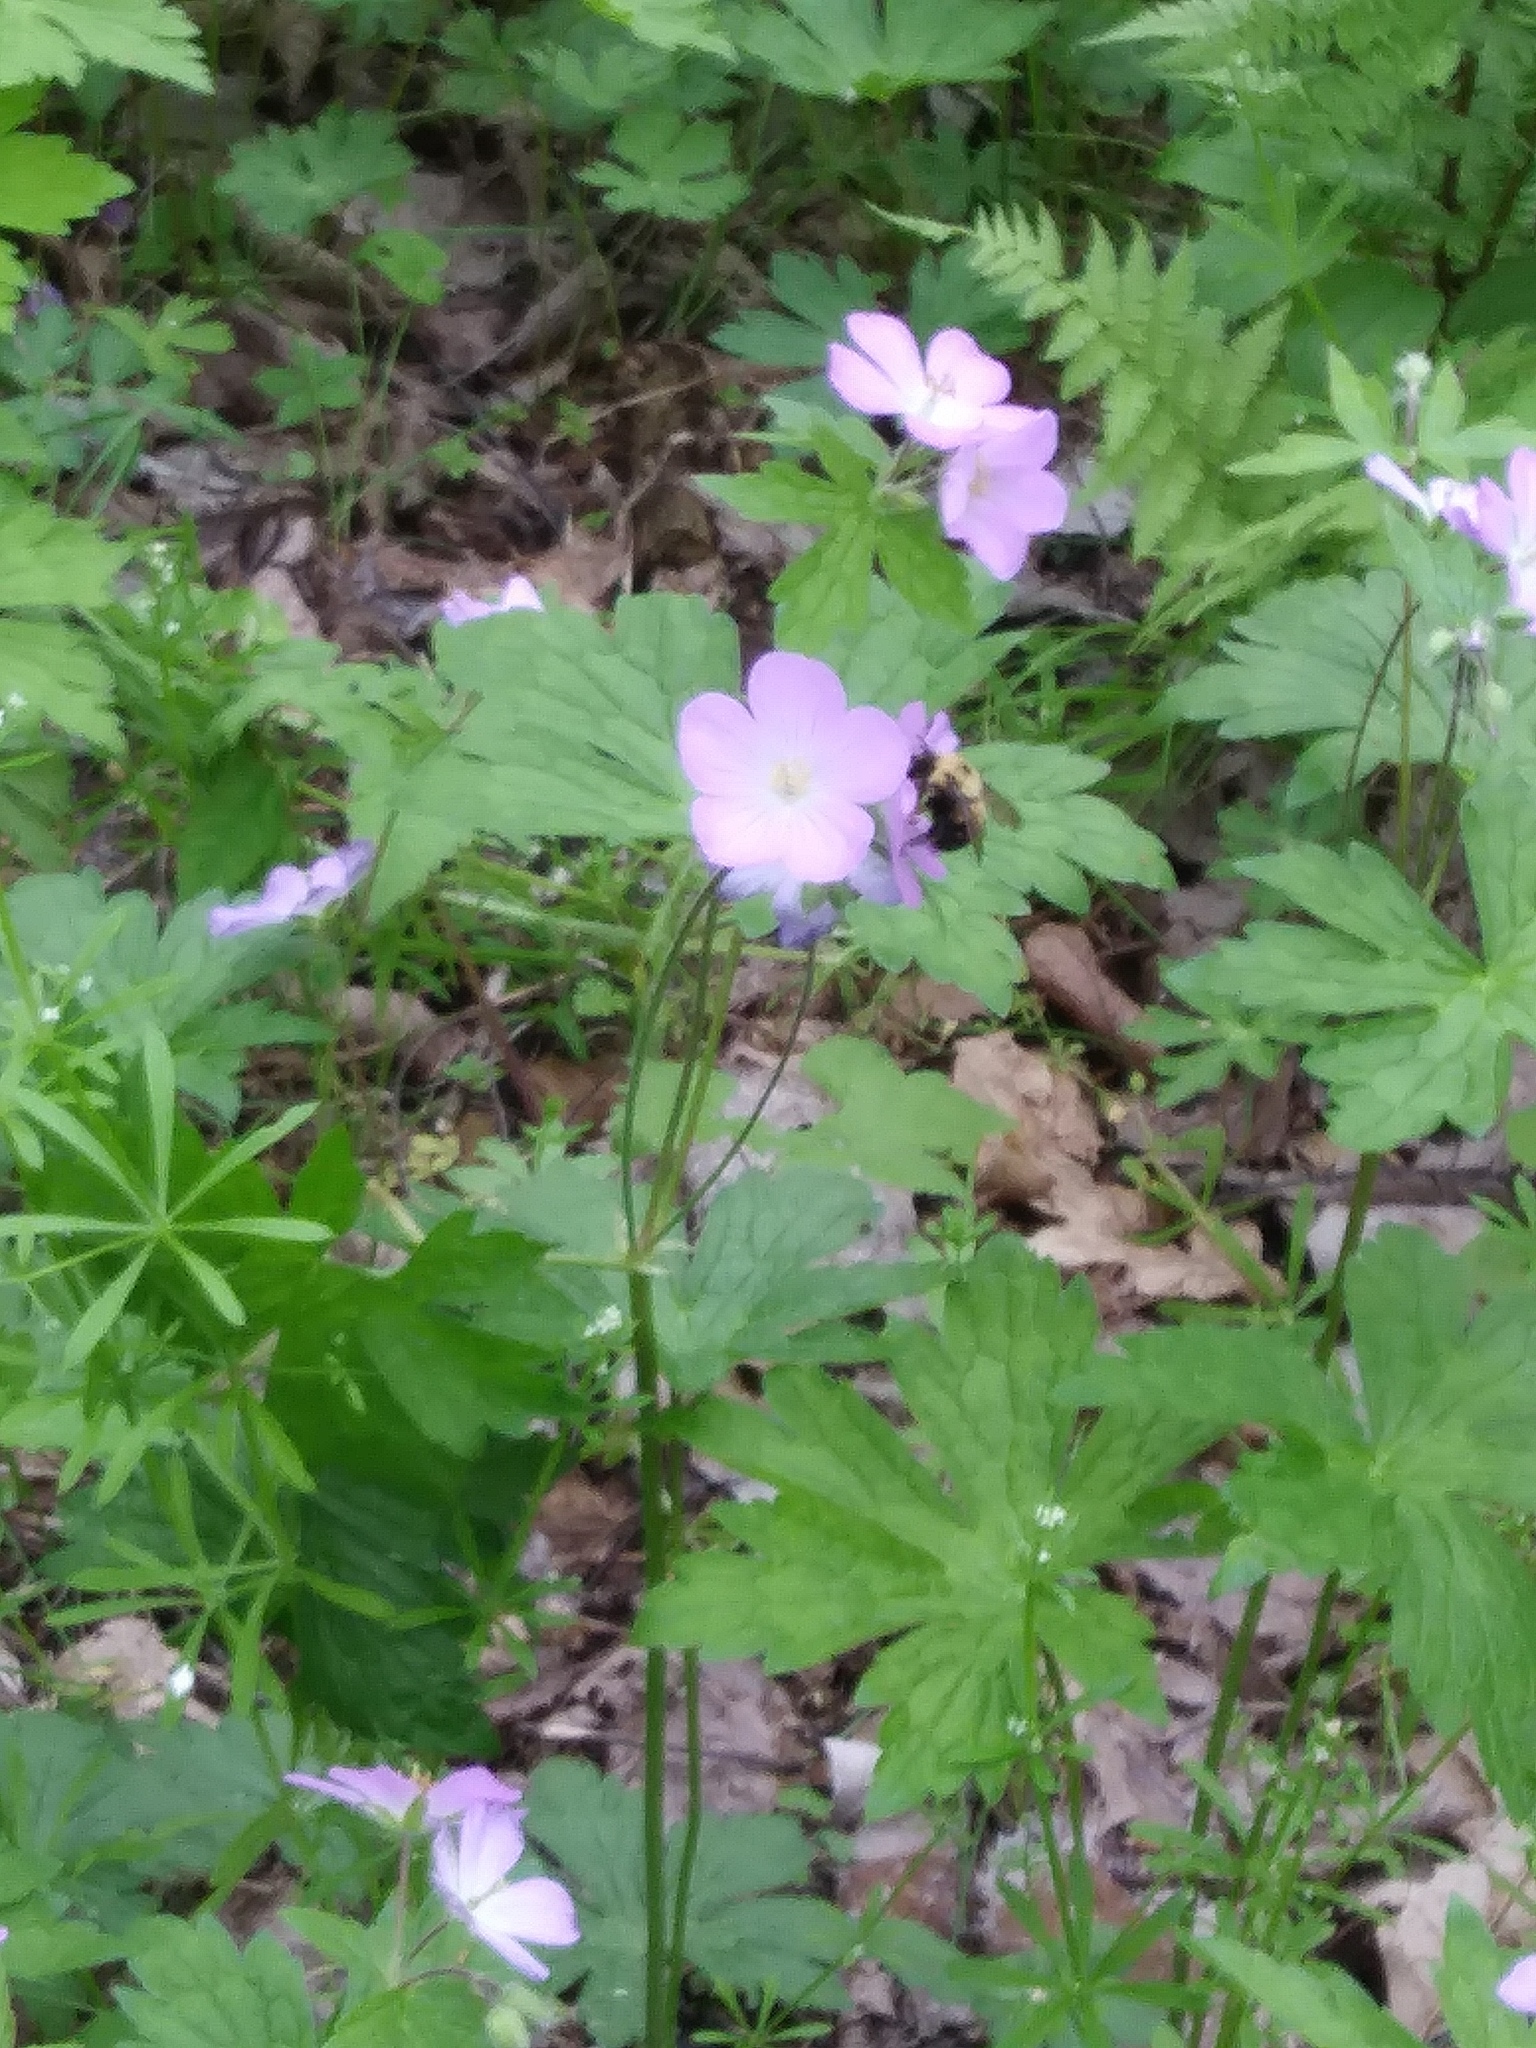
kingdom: Animalia
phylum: Arthropoda
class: Insecta
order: Hymenoptera
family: Apidae
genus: Bombus
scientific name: Bombus bimaculatus
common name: Two-spotted bumble bee
